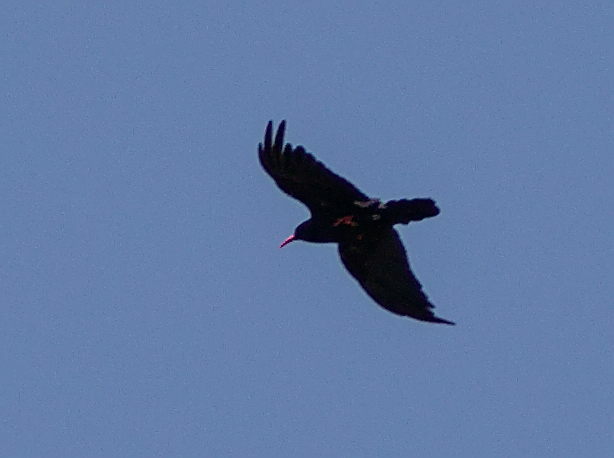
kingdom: Animalia
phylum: Chordata
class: Aves
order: Passeriformes
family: Corvidae
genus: Pyrrhocorax
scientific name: Pyrrhocorax pyrrhocorax
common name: Red-billed chough
